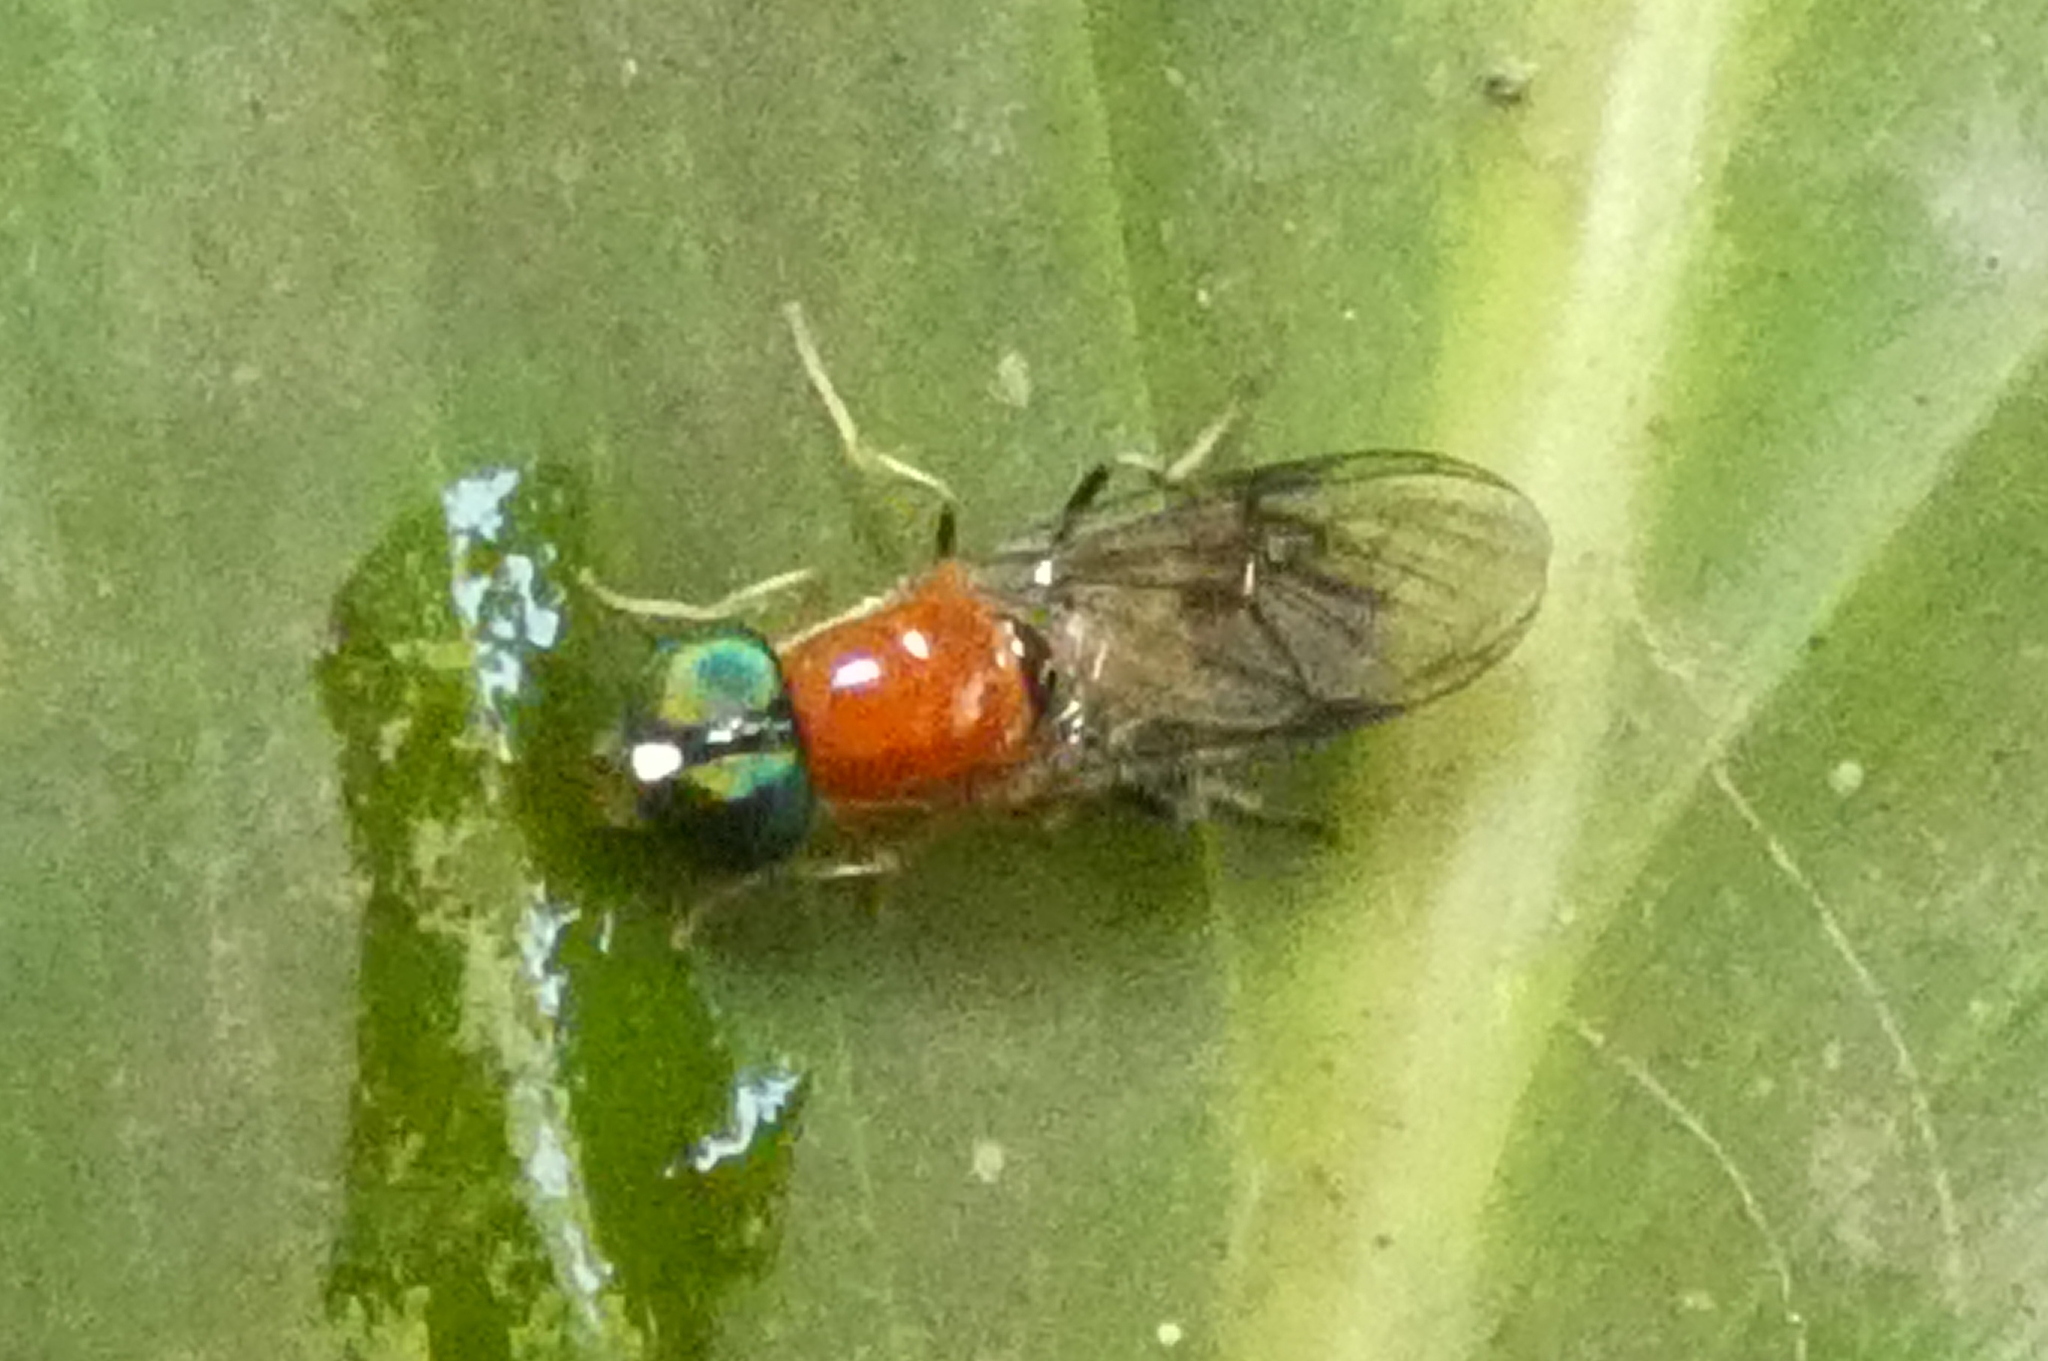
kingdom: Animalia
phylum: Arthropoda
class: Insecta
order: Diptera
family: Stratiomyidae
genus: Sargus
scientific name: Sargus thoracicus
